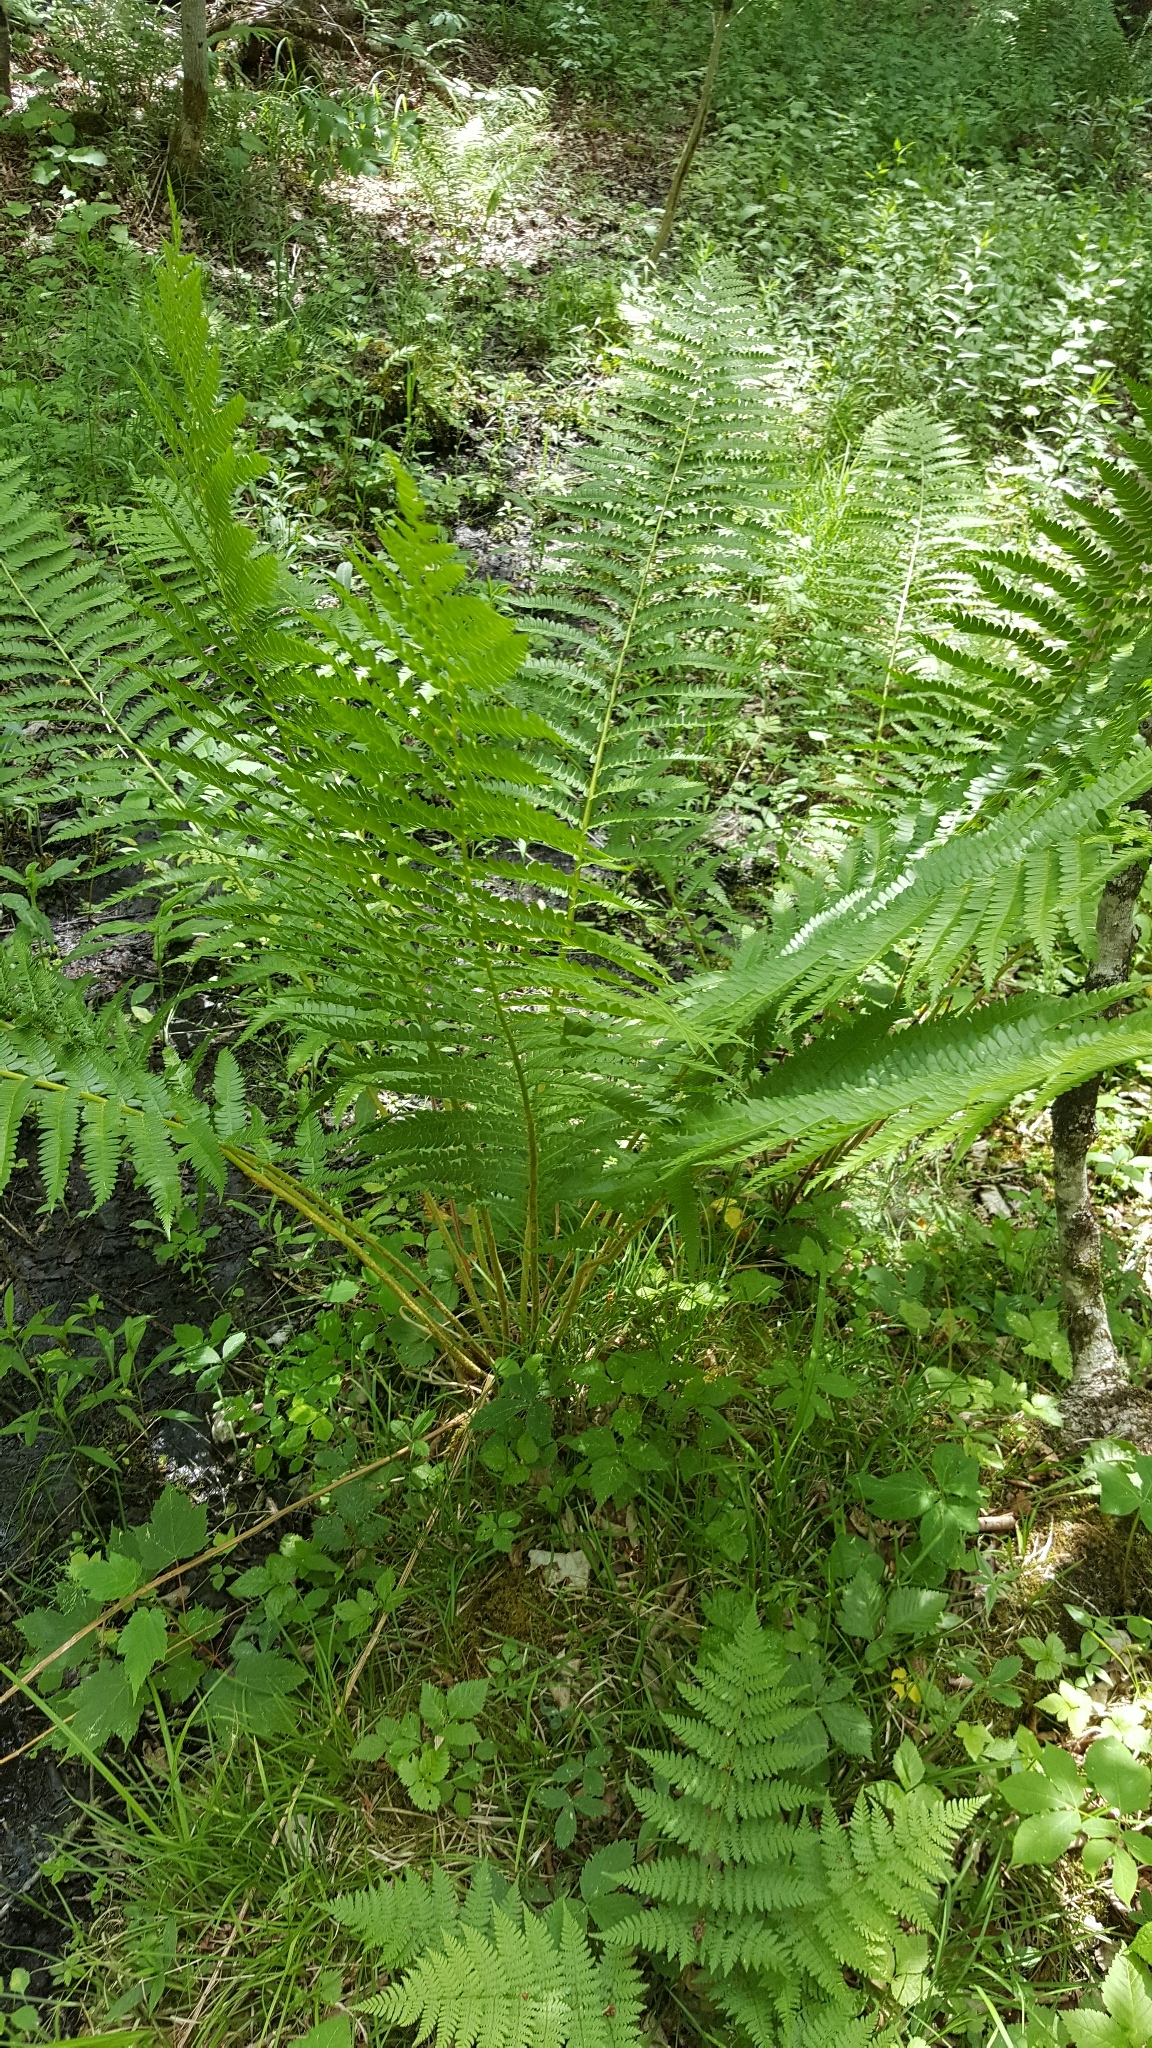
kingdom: Plantae
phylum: Tracheophyta
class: Polypodiopsida
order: Osmundales
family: Osmundaceae
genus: Osmundastrum
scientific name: Osmundastrum cinnamomeum
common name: Cinnamon fern
